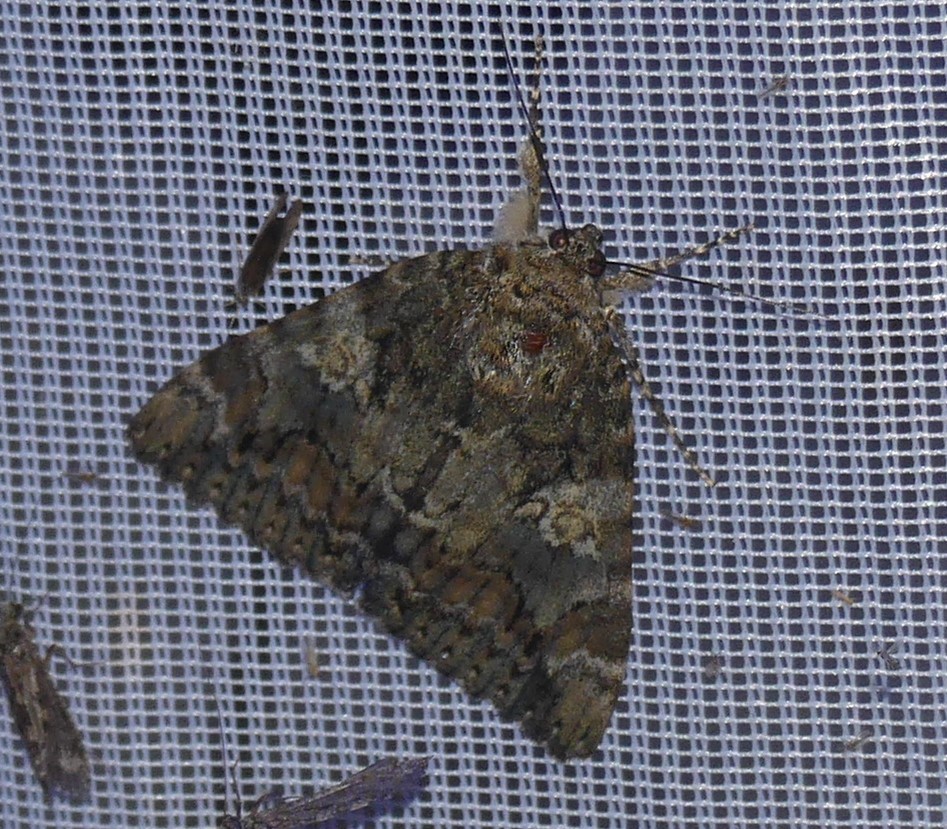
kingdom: Animalia
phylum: Arthropoda
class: Insecta
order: Lepidoptera
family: Erebidae
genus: Catocala
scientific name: Catocala sponsa
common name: Dark crimson underwing
